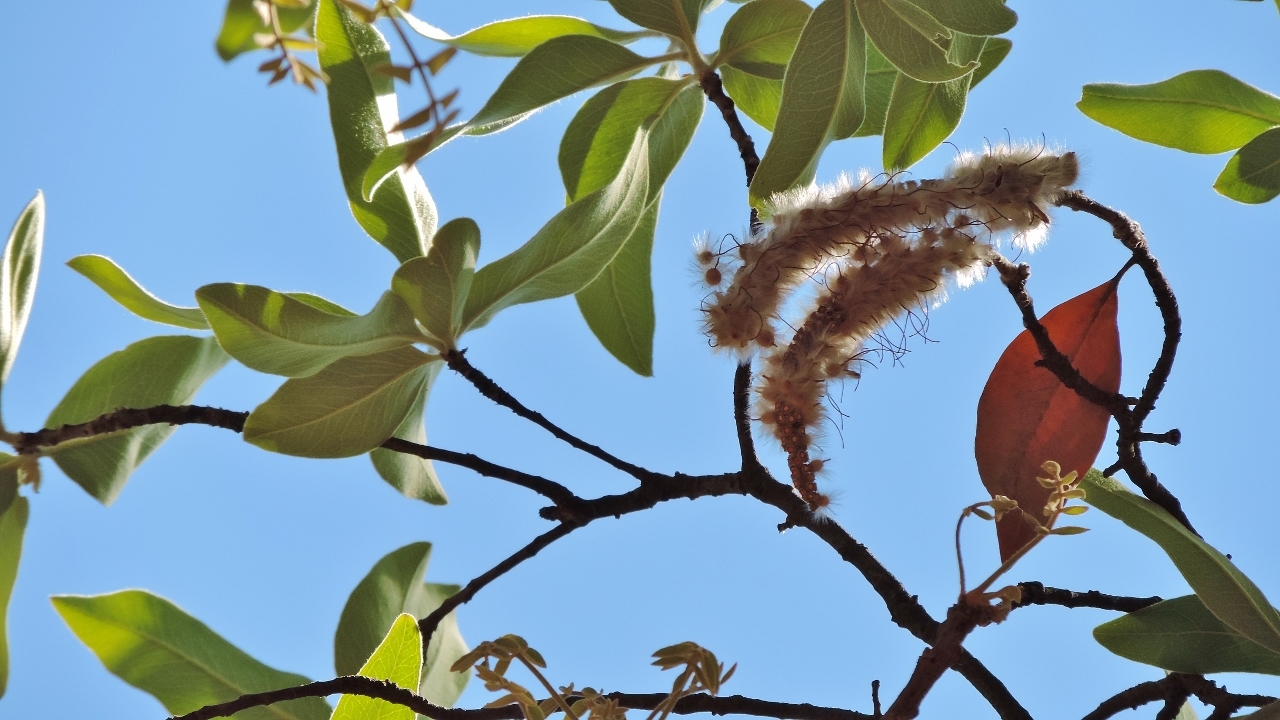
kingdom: Plantae
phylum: Tracheophyta
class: Magnoliopsida
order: Proteales
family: Proteaceae
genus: Faurea
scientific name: Faurea rochetiana
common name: Broad-leaved beech
